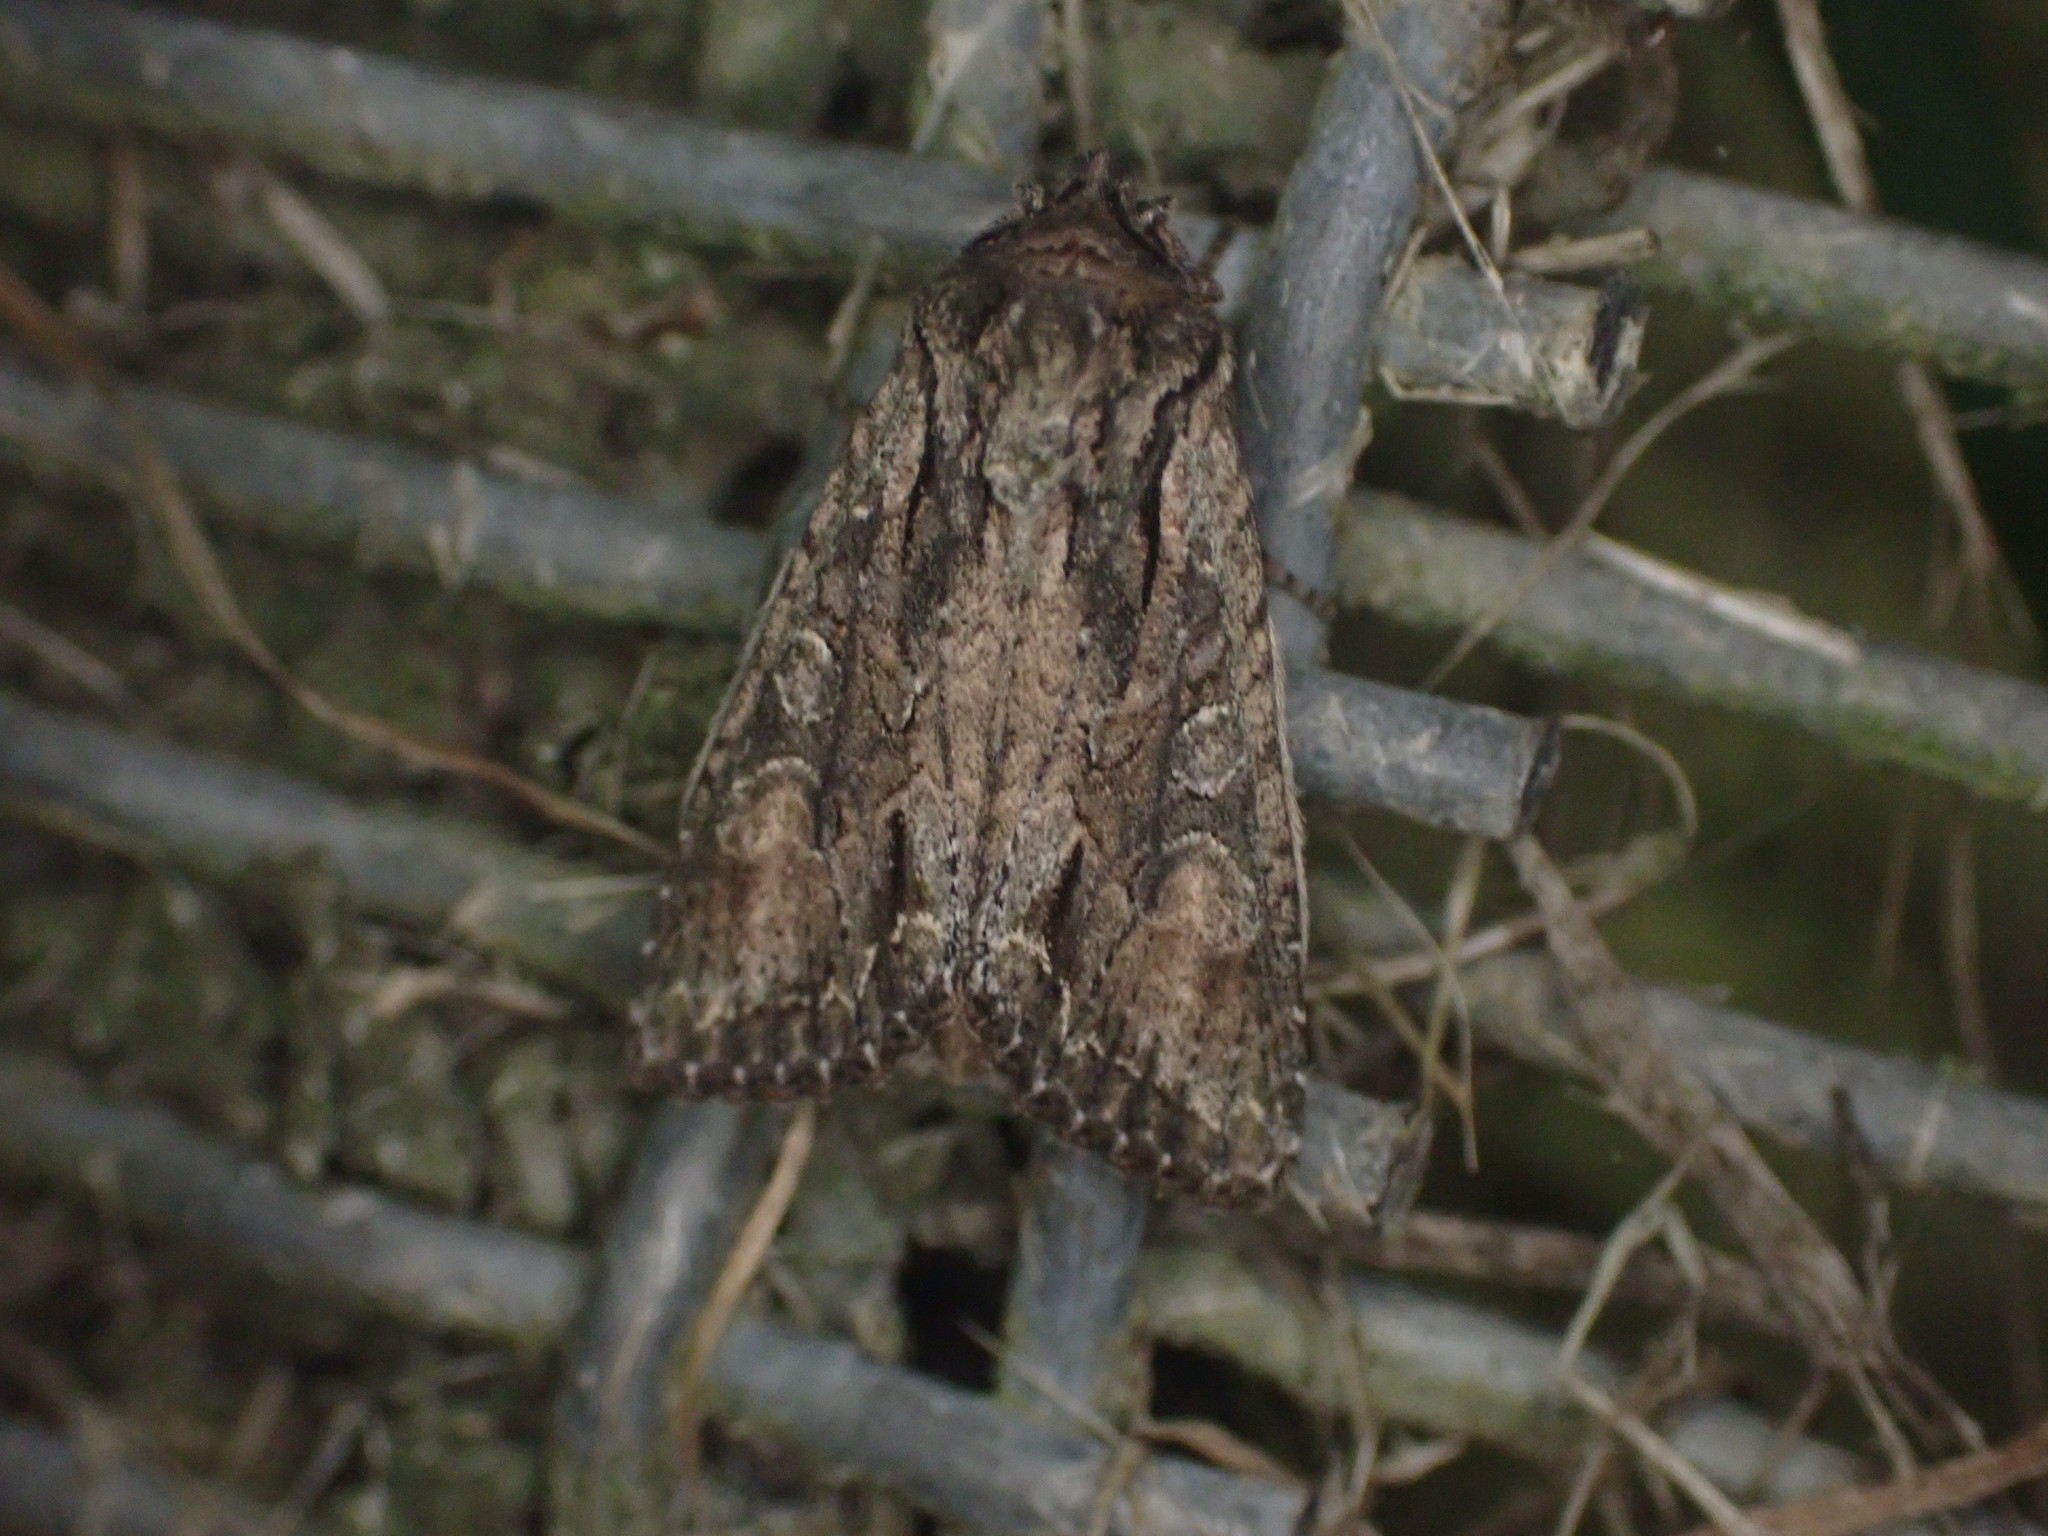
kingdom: Animalia
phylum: Arthropoda
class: Insecta
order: Lepidoptera
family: Noctuidae
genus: Ichneutica
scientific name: Ichneutica mutans
